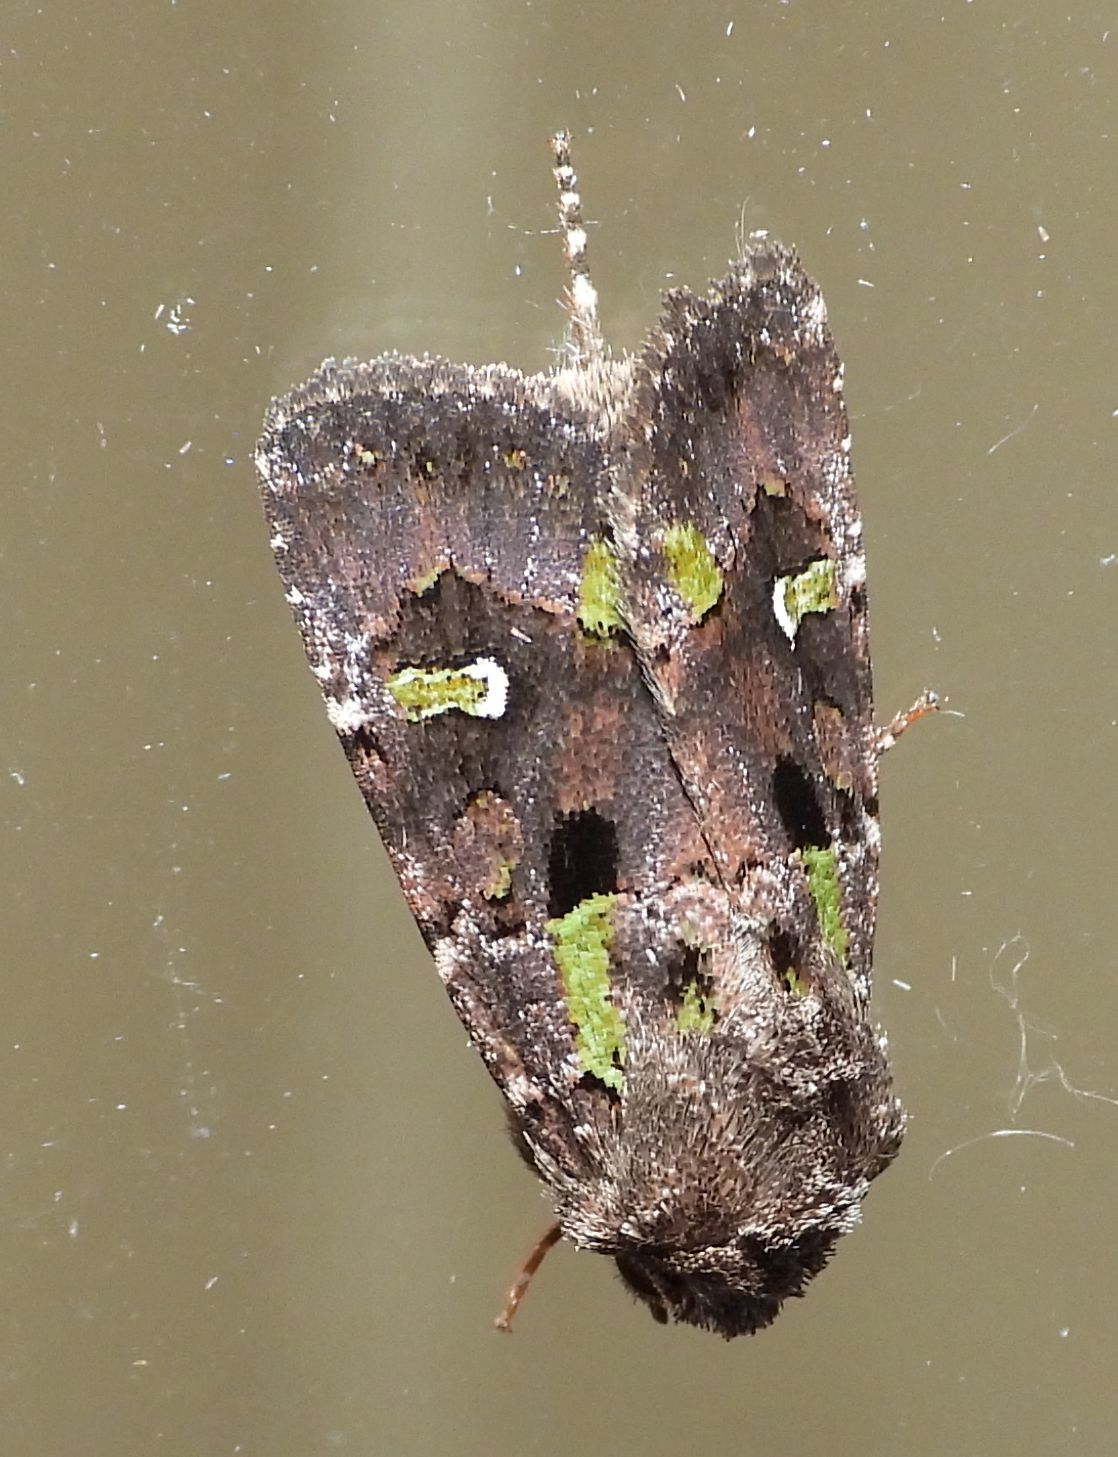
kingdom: Animalia
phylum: Arthropoda
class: Insecta
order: Lepidoptera
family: Noctuidae
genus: Lacinipolia
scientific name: Lacinipolia renigera
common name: Kidney-spotted minor
